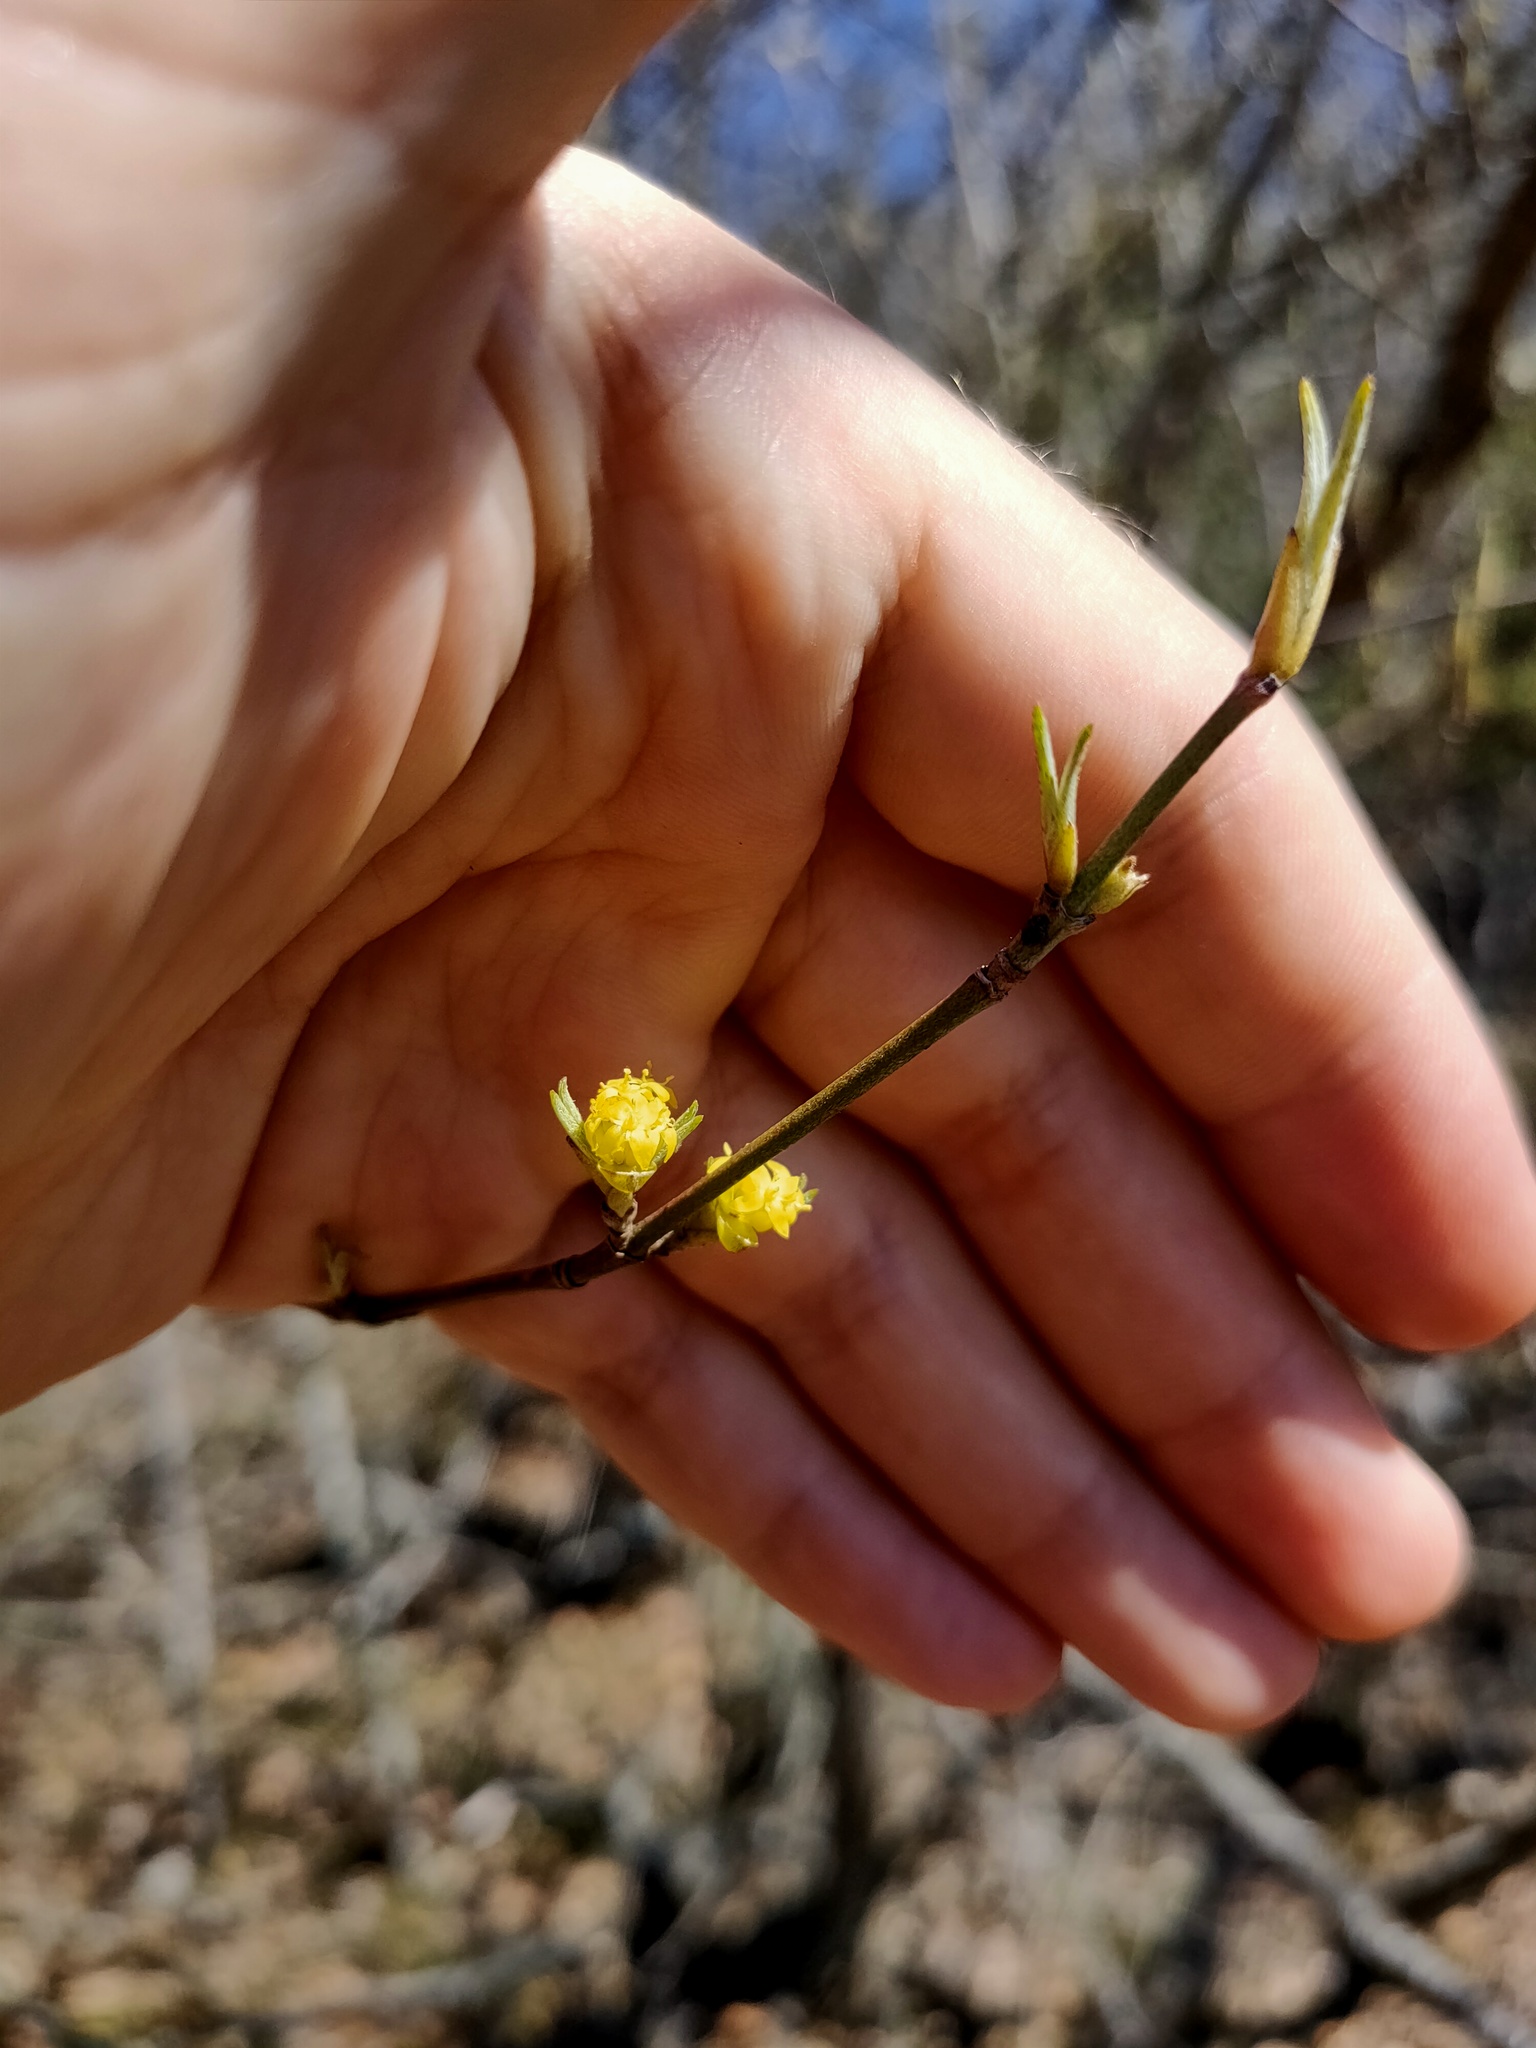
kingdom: Plantae
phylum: Tracheophyta
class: Magnoliopsida
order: Cornales
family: Cornaceae
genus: Cornus
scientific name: Cornus mas
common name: Cornelian-cherry
